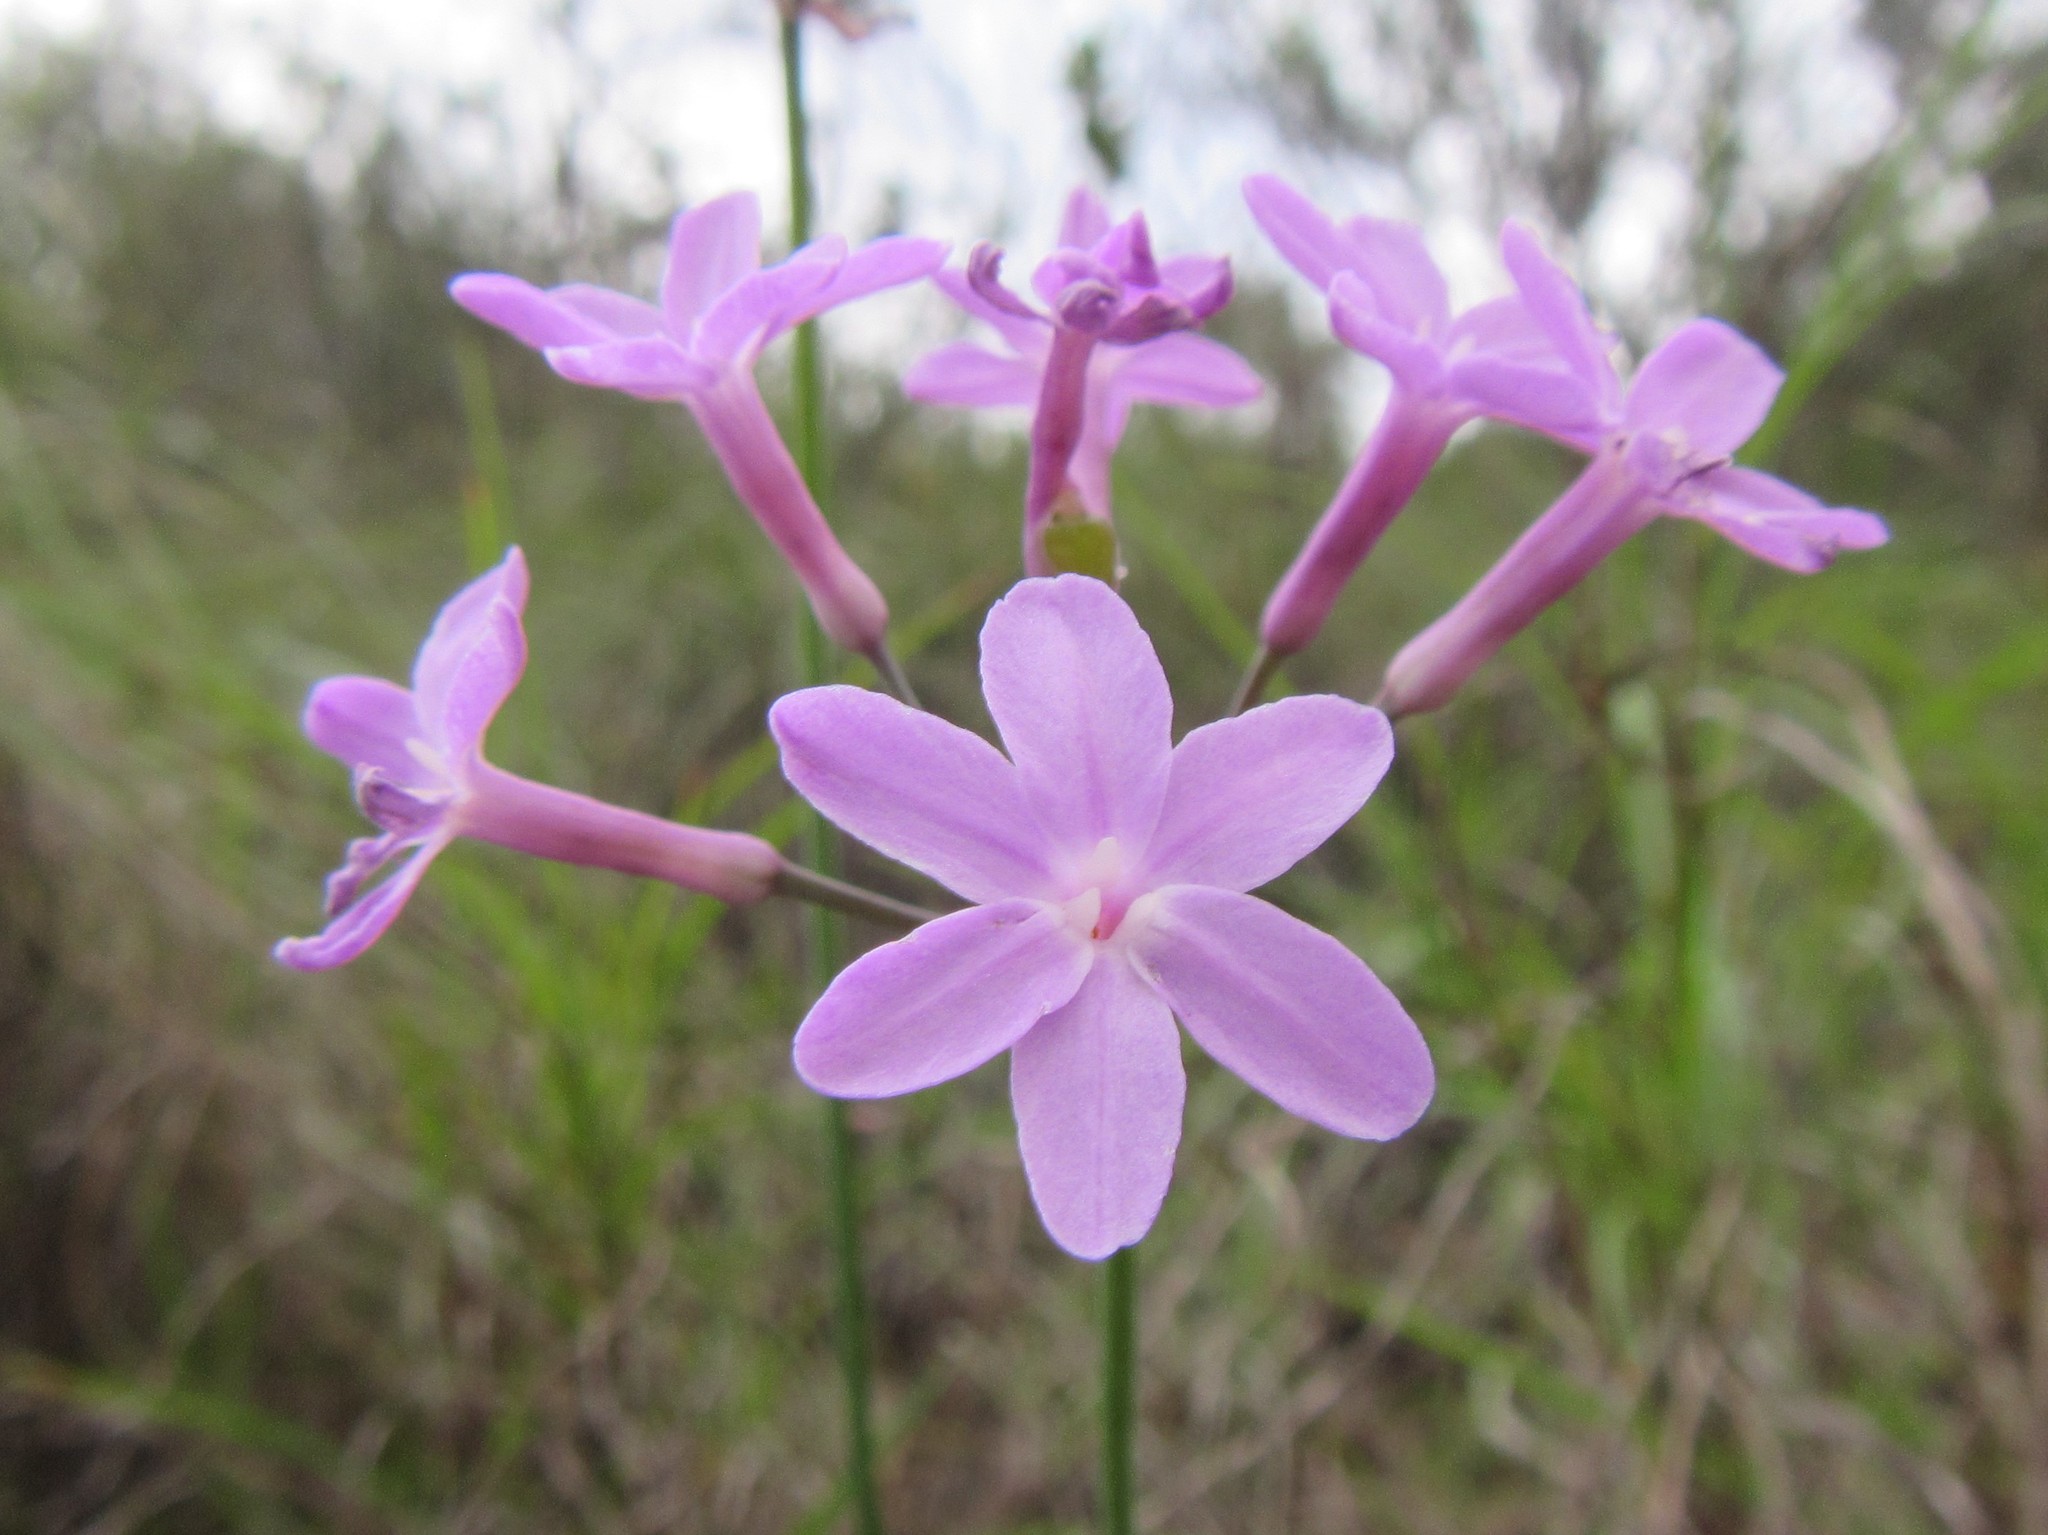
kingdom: Plantae
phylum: Tracheophyta
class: Liliopsida
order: Asparagales
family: Amaryllidaceae
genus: Tulbaghia
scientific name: Tulbaghia violacea
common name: Society garlic
